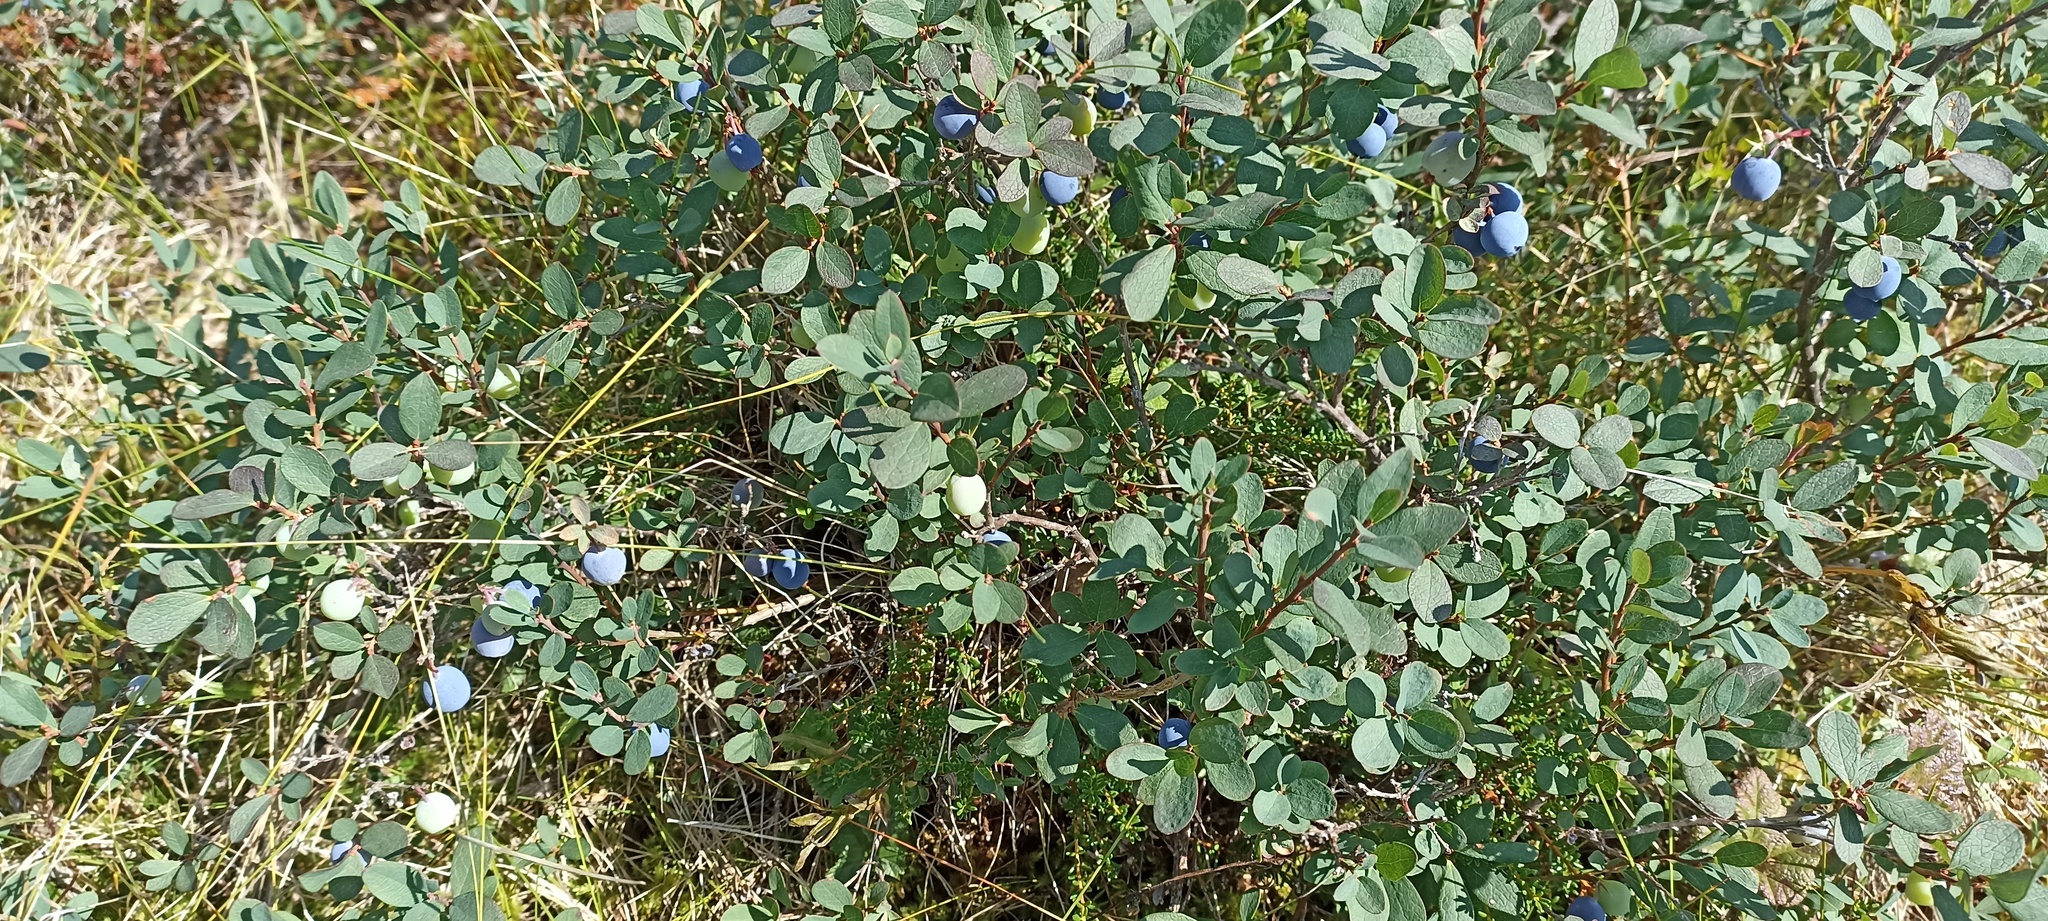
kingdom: Plantae
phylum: Tracheophyta
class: Magnoliopsida
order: Ericales
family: Ericaceae
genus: Vaccinium
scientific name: Vaccinium uliginosum
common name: Bog bilberry
